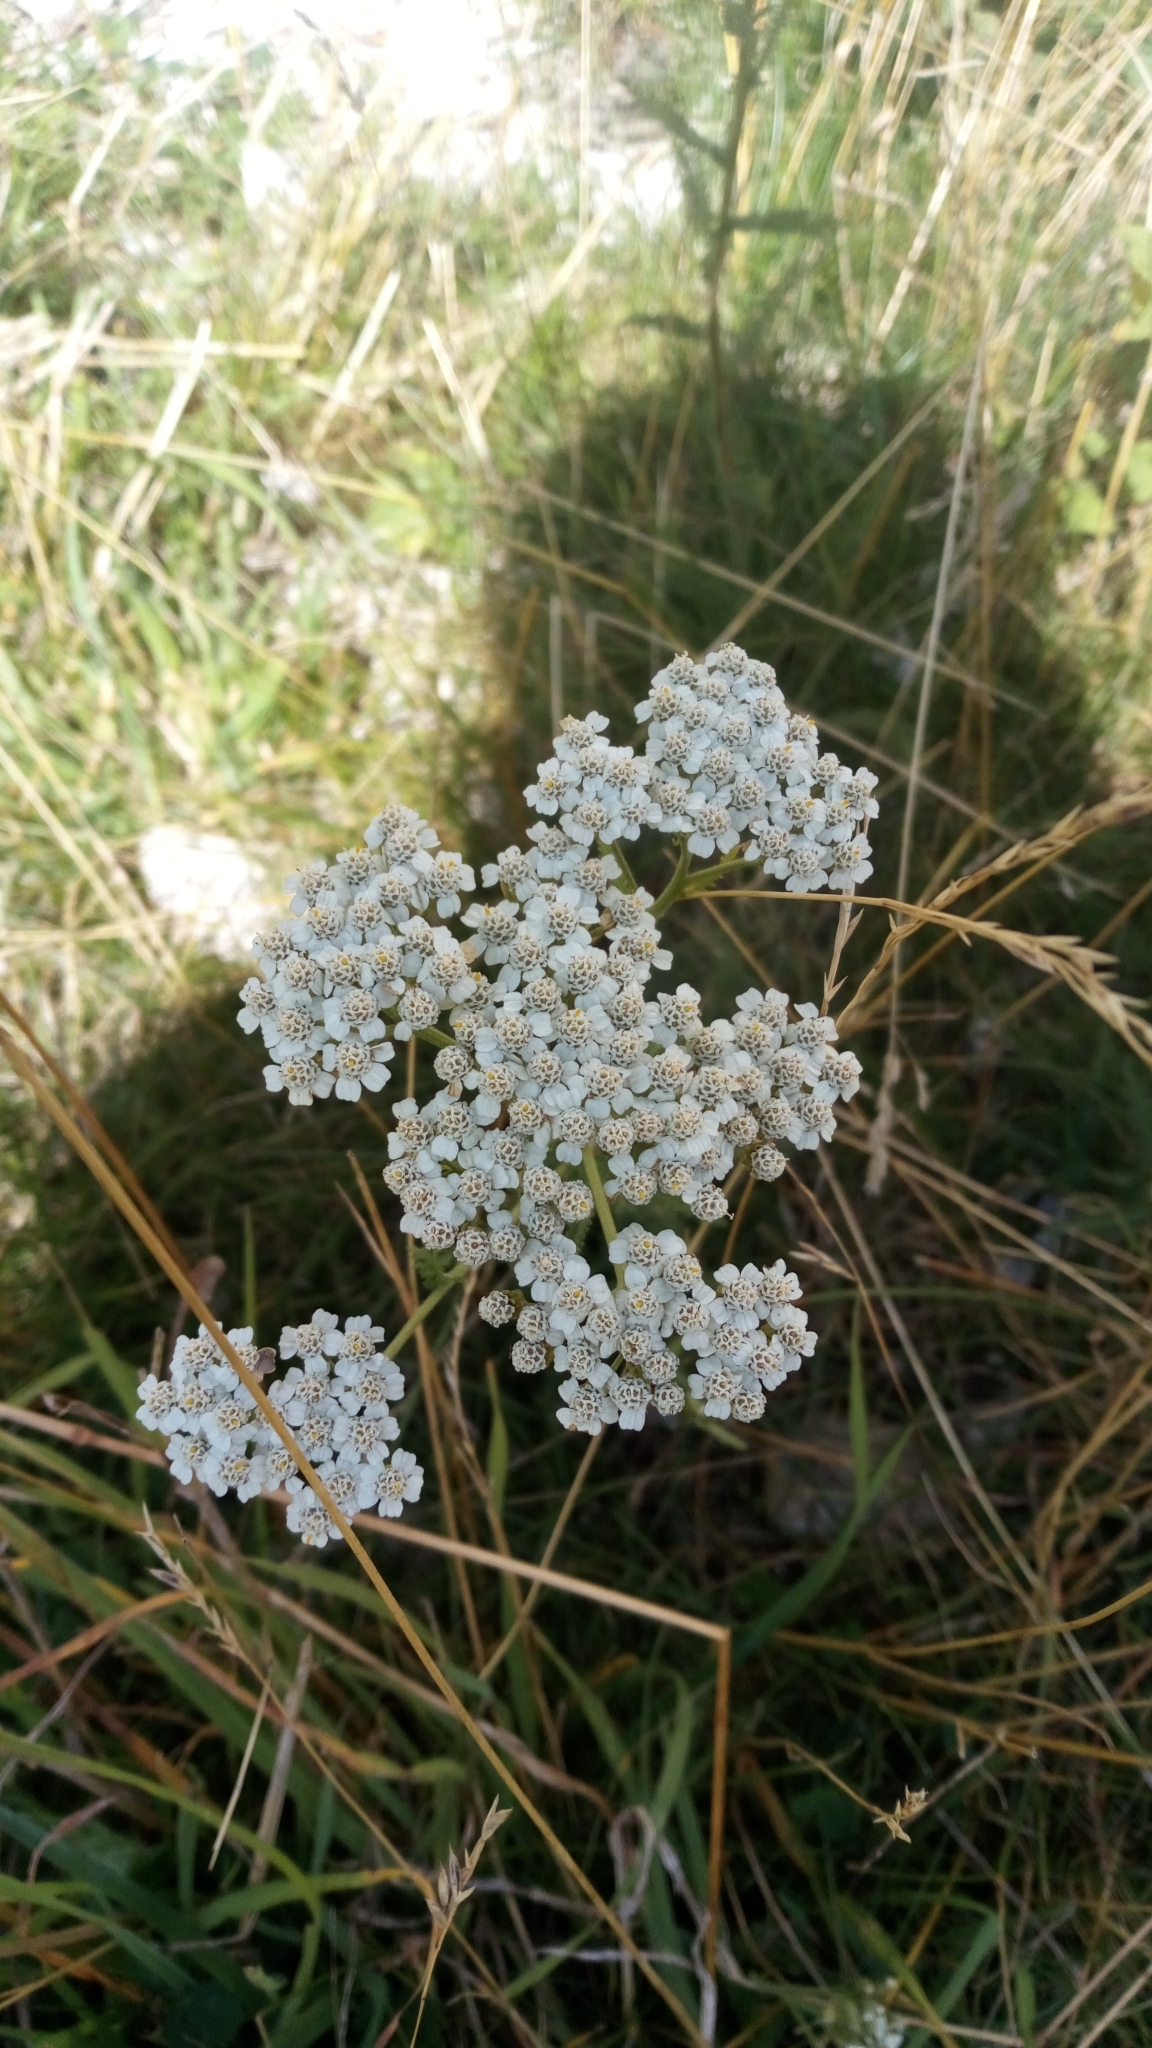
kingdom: Plantae
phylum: Tracheophyta
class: Magnoliopsida
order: Asterales
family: Asteraceae
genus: Achillea
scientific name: Achillea millefolium
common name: Yarrow
